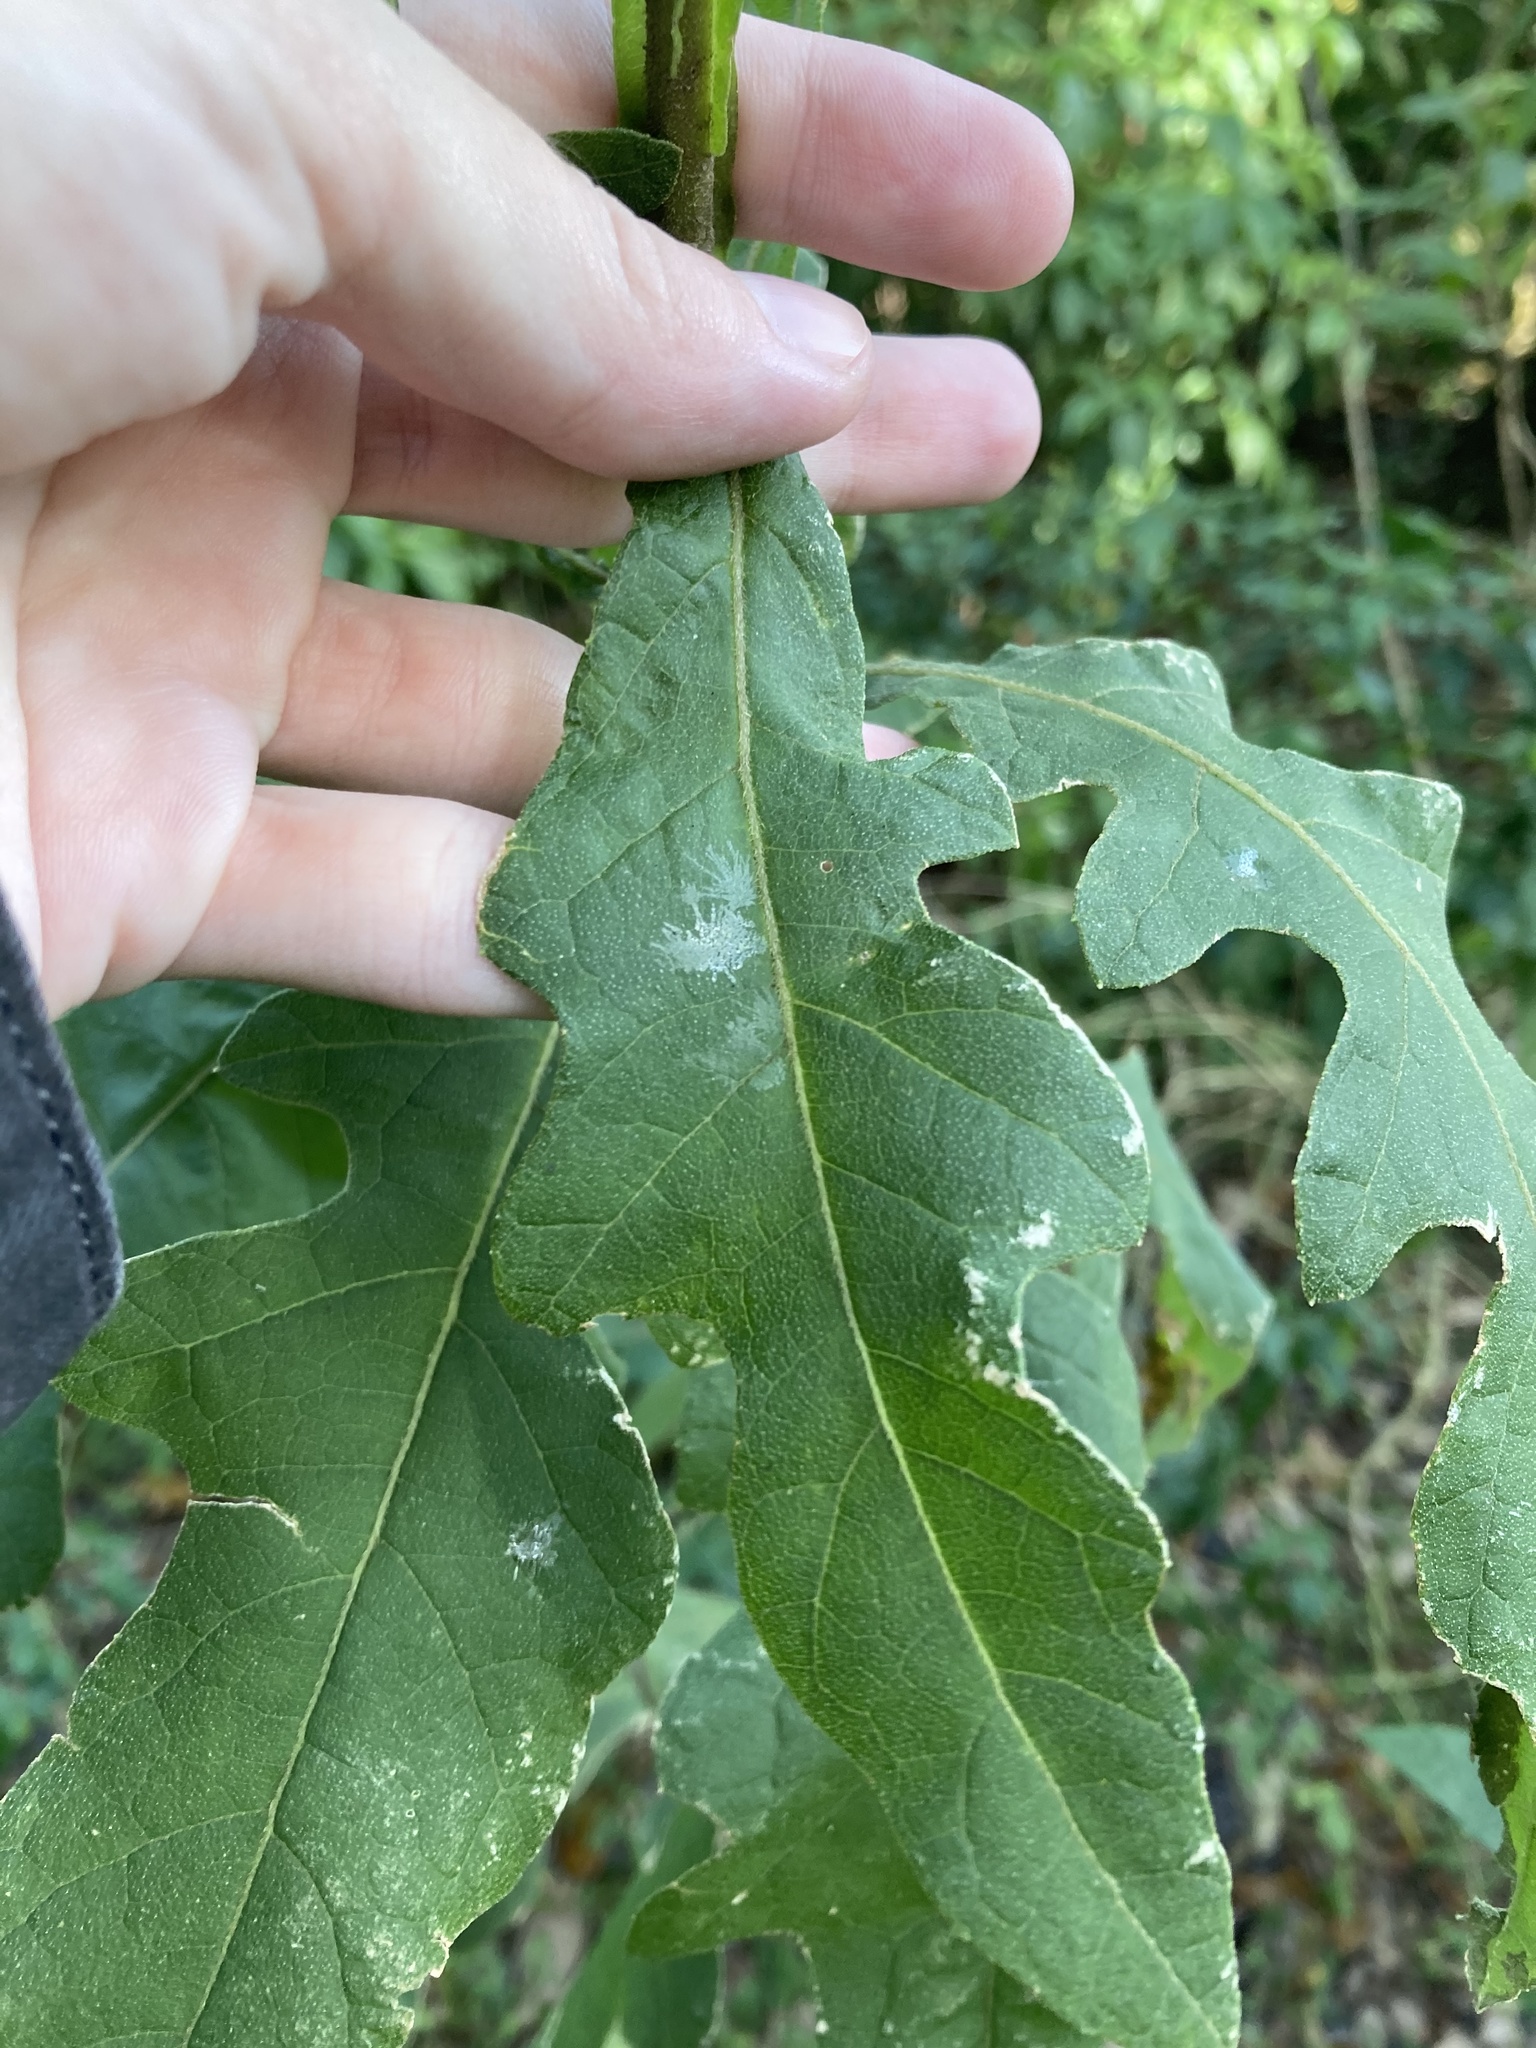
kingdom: Plantae
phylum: Tracheophyta
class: Magnoliopsida
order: Asterales
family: Asteraceae
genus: Verbesina
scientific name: Verbesina virginica
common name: Frostweed
